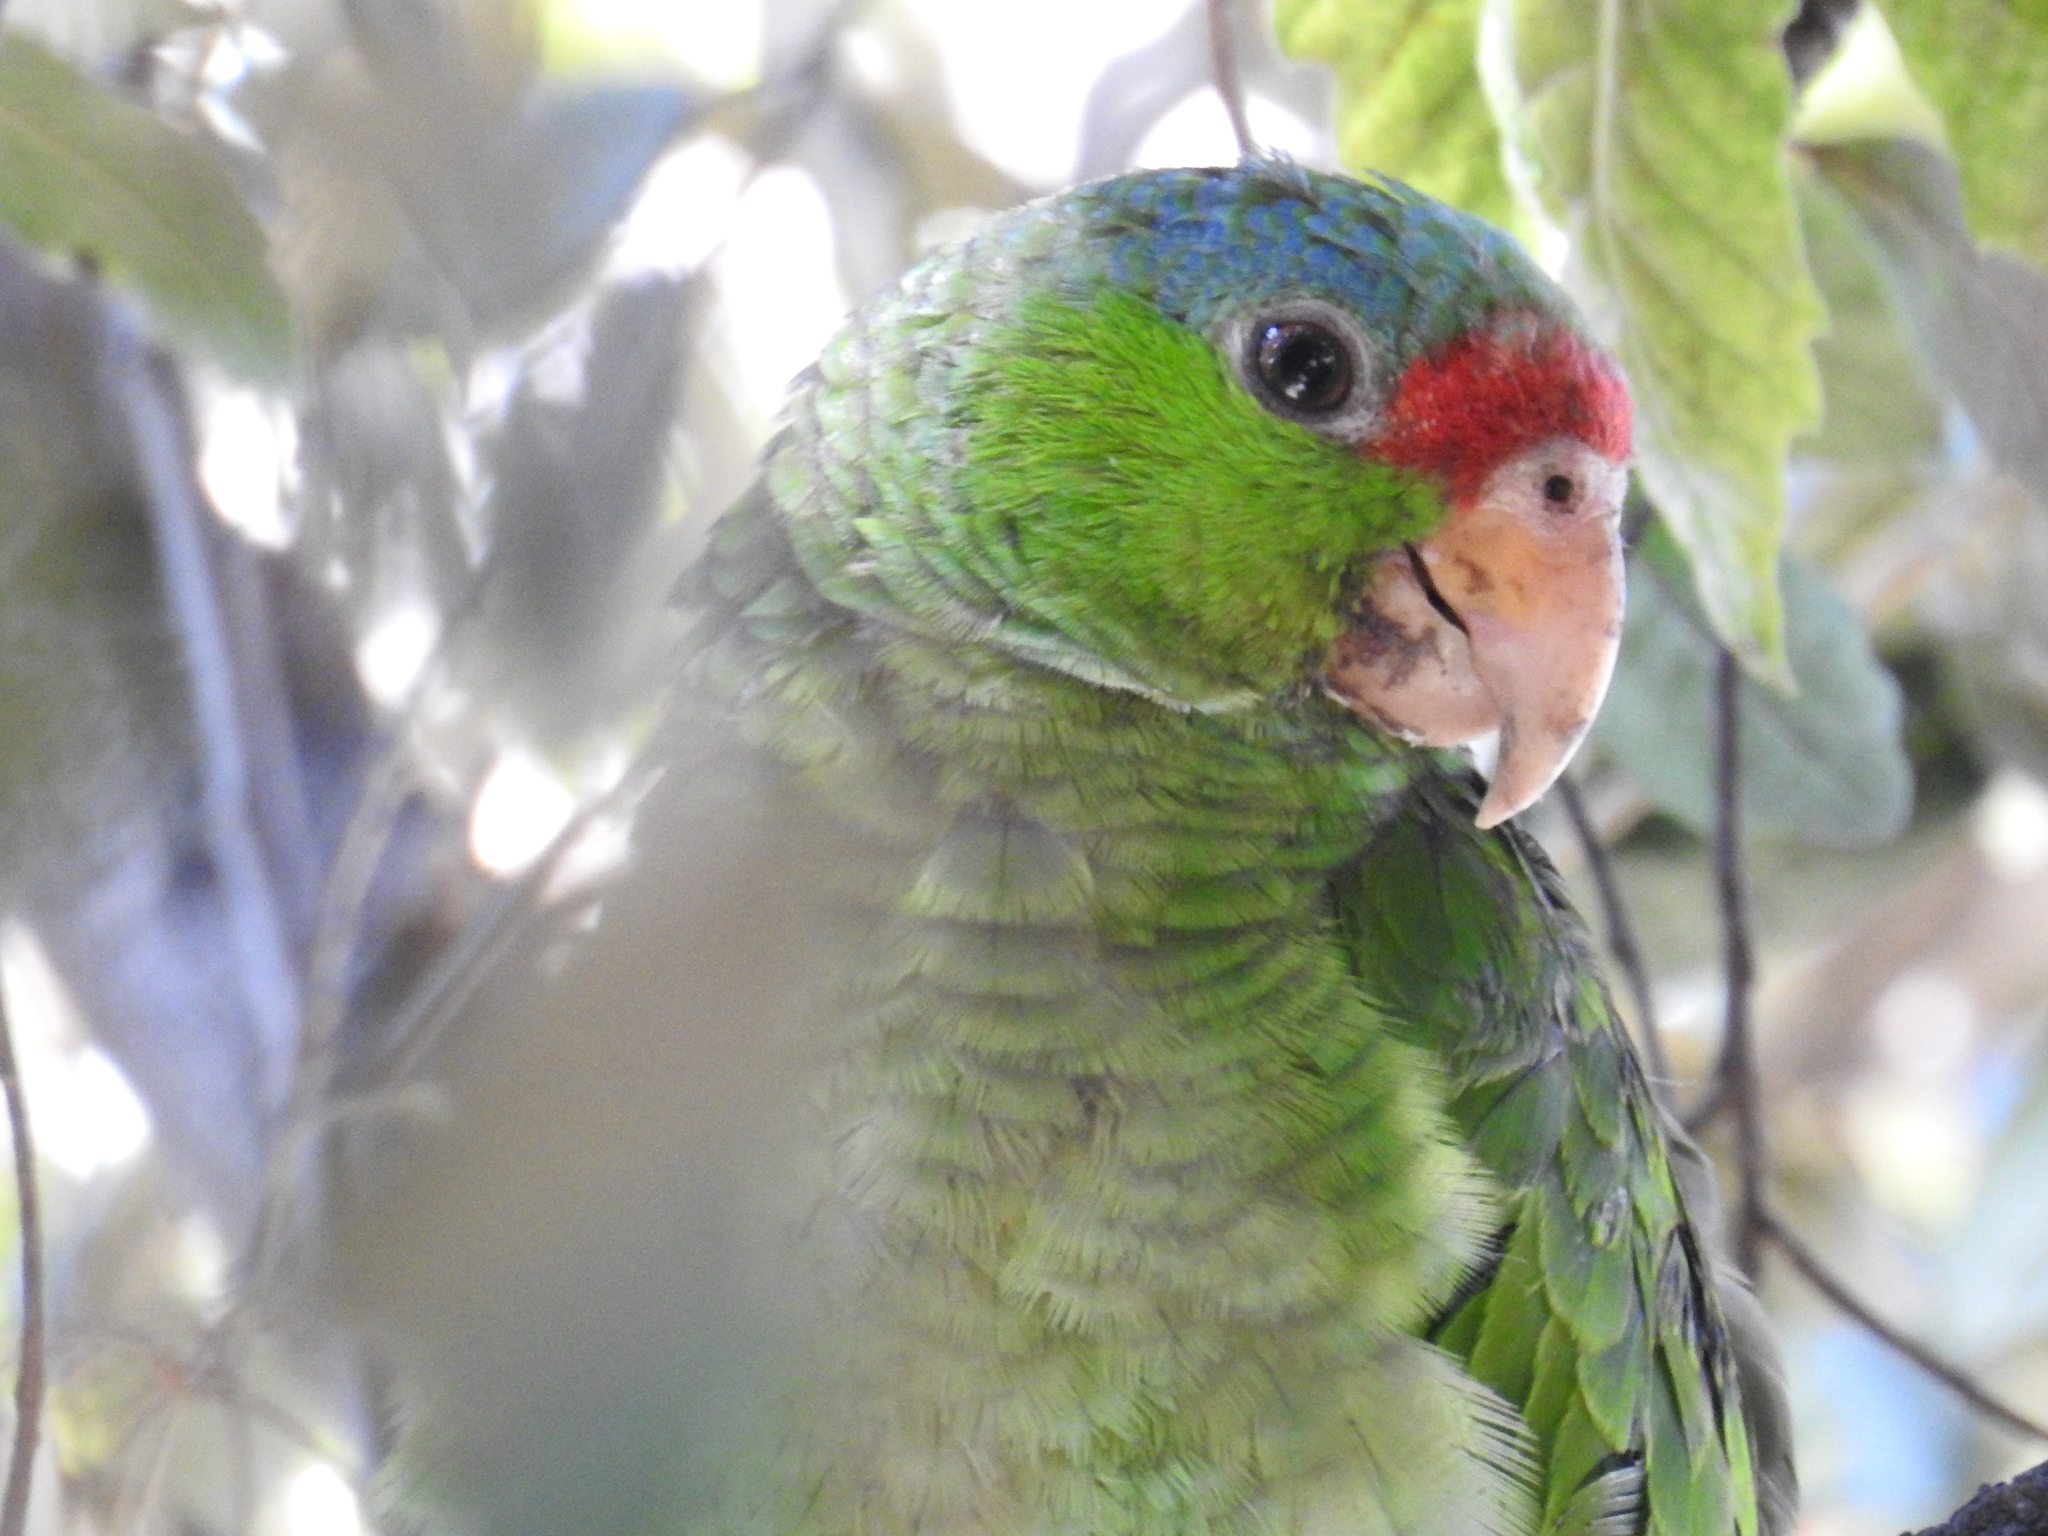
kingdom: Animalia
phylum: Chordata
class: Aves
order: Psittaciformes
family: Psittacidae
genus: Amazona
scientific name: Amazona viridigenalis
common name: Red-crowned amazon
